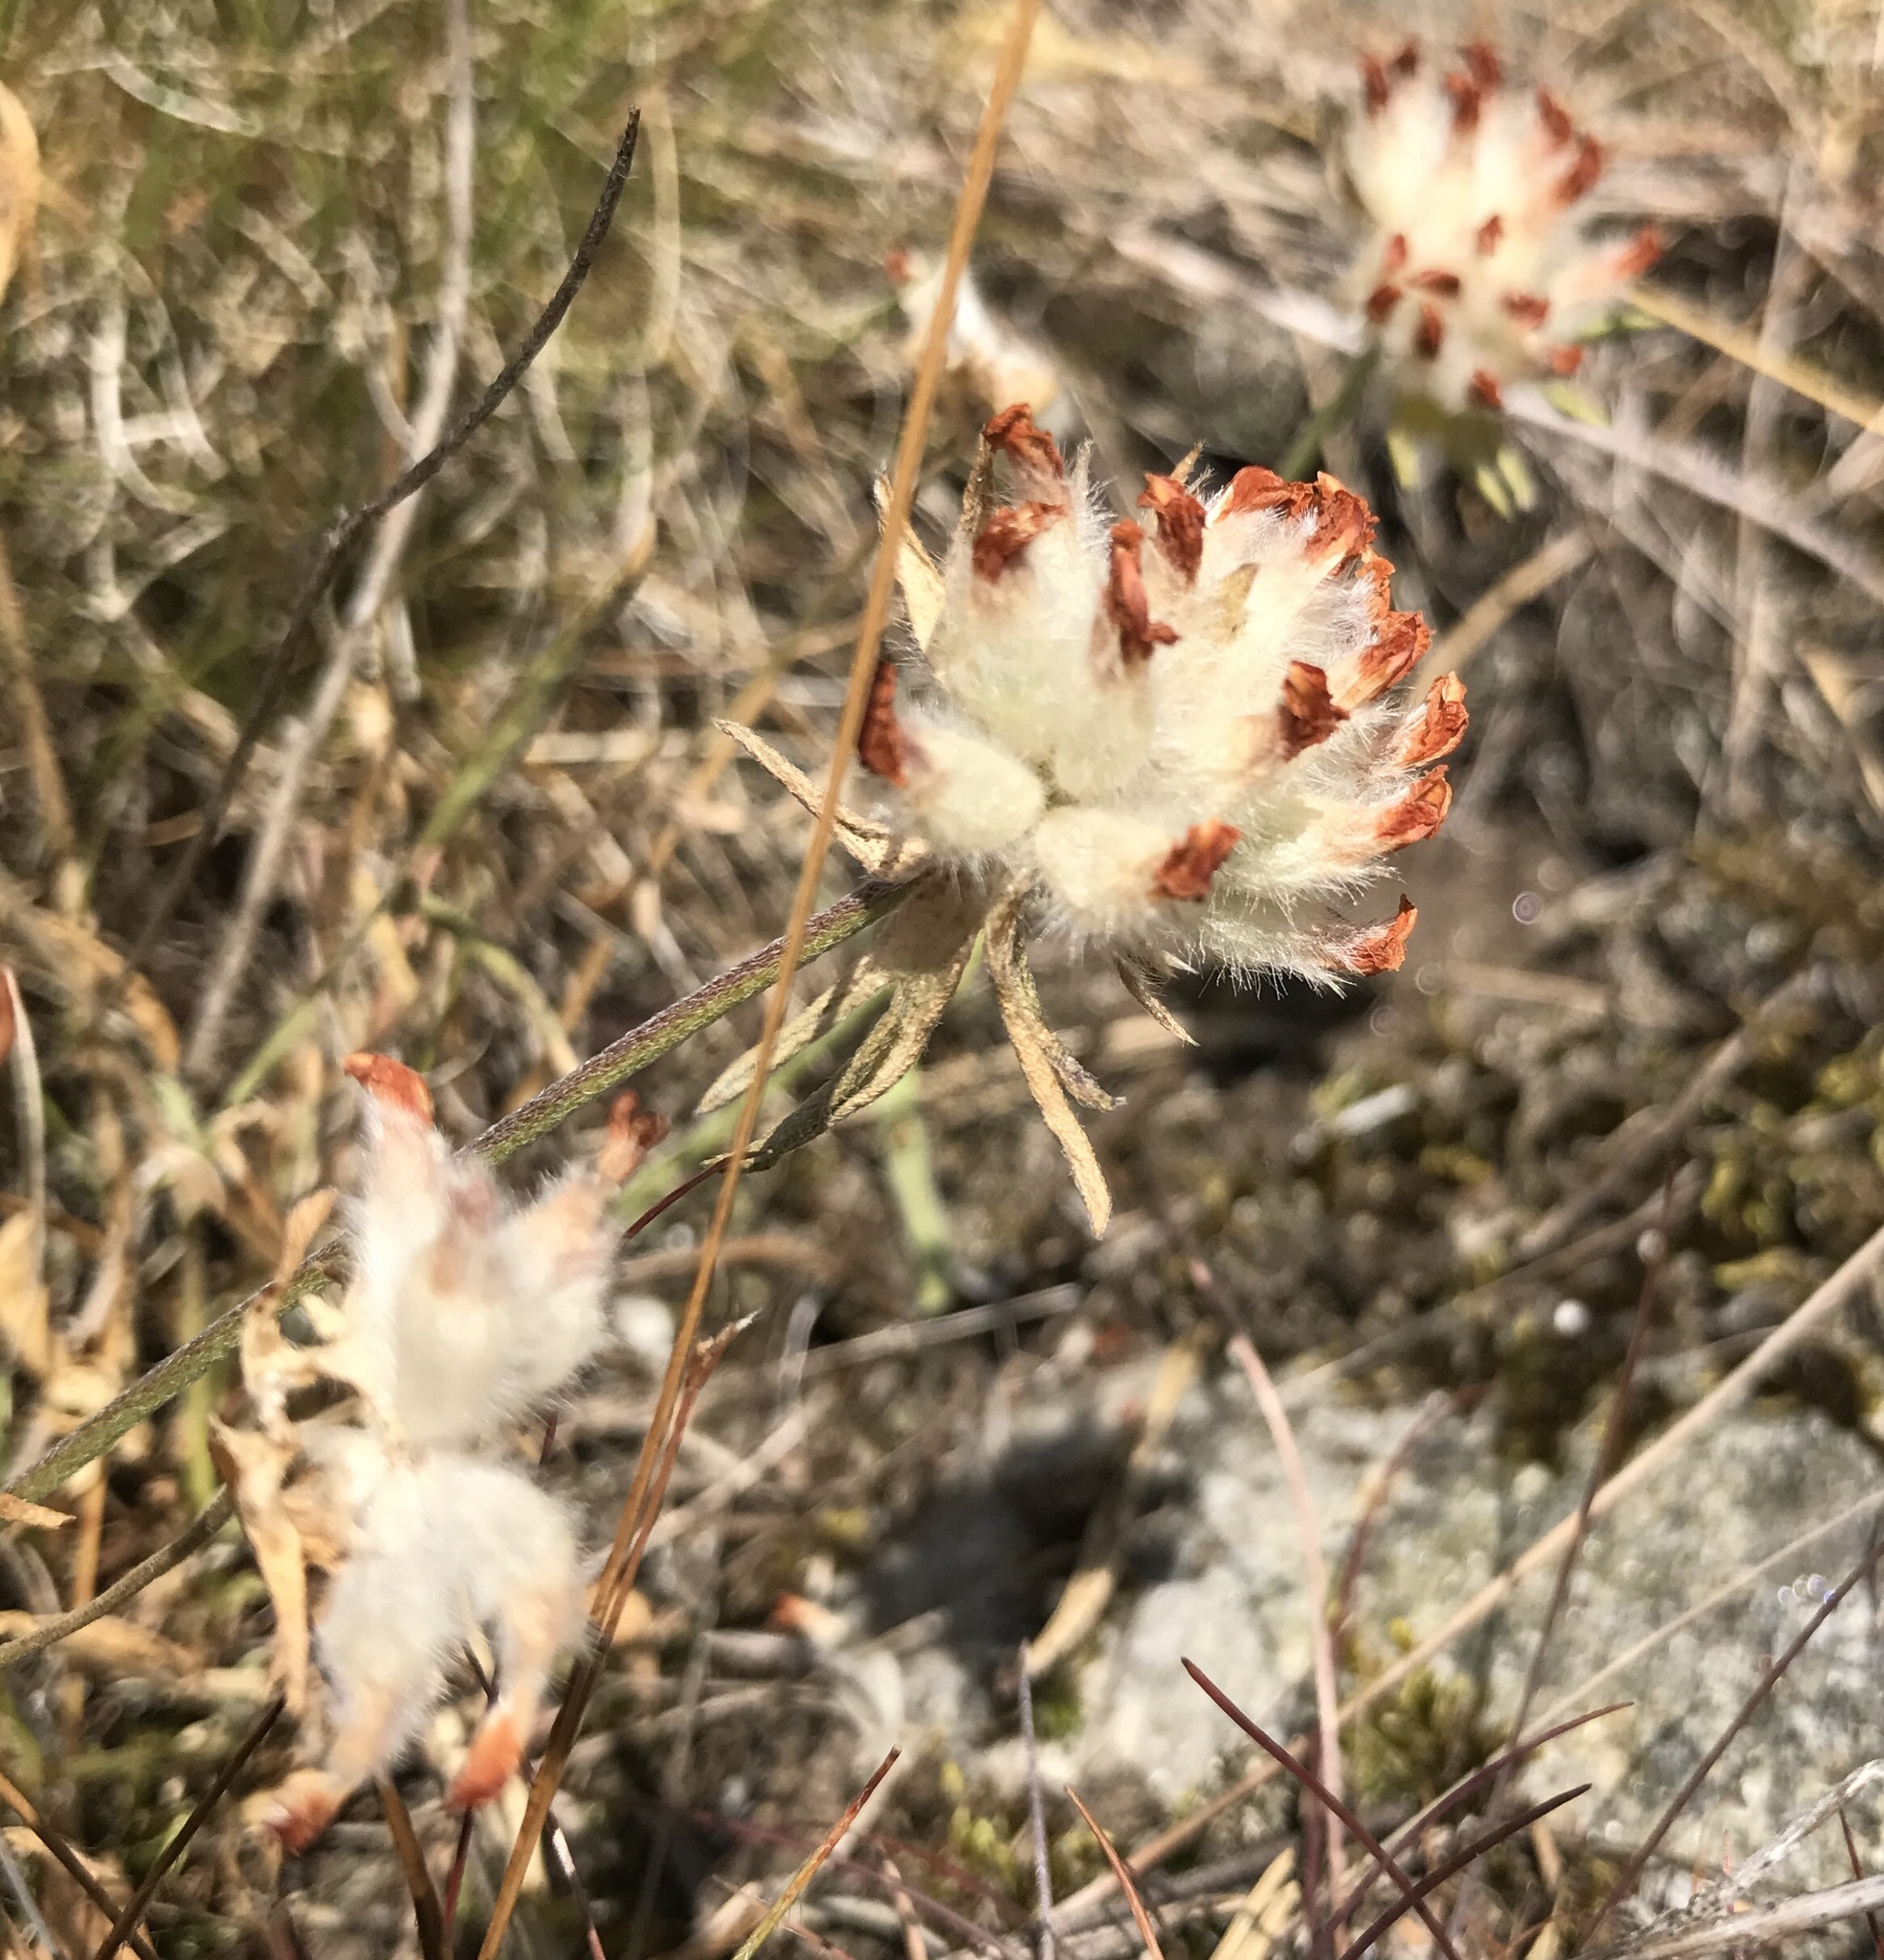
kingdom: Plantae
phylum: Tracheophyta
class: Magnoliopsida
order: Fabales
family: Fabaceae
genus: Anthyllis
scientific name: Anthyllis vulneraria
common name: Kidney vetch
